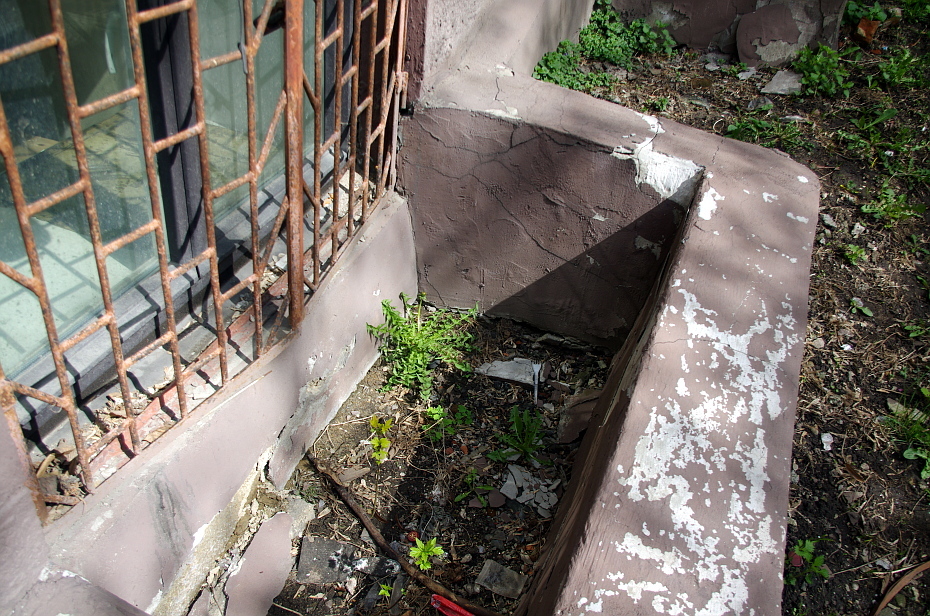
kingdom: Plantae
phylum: Tracheophyta
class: Magnoliopsida
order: Asterales
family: Asteraceae
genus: Taraxacum
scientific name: Taraxacum officinale
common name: Common dandelion
